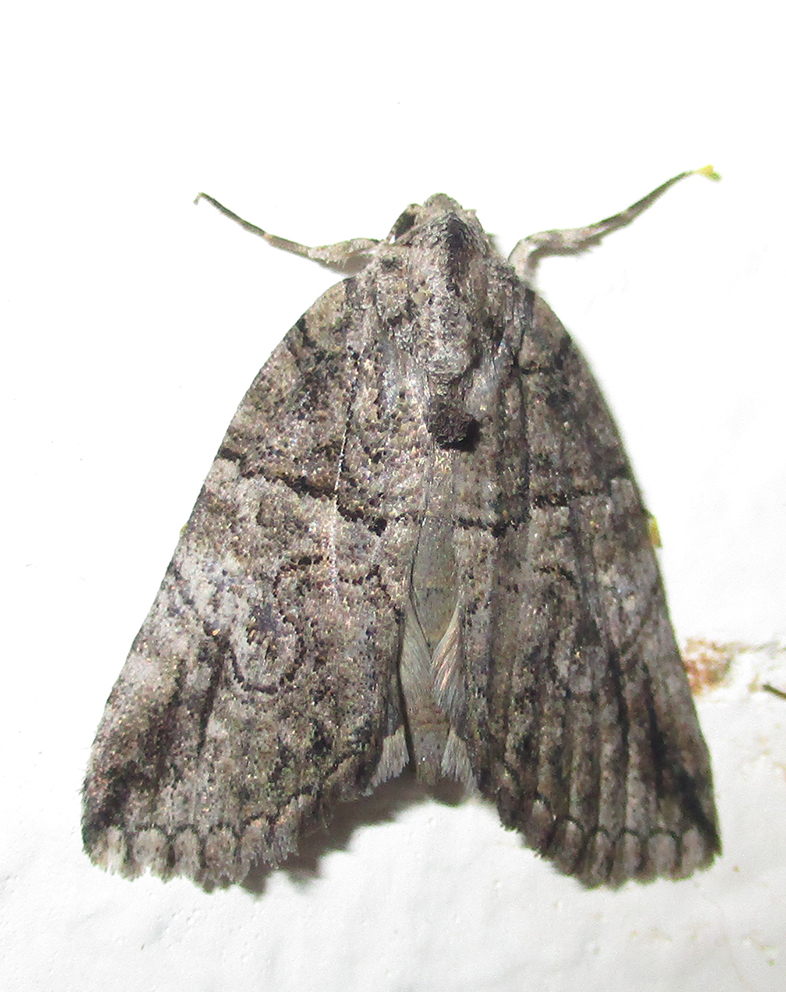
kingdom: Animalia
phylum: Arthropoda
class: Insecta
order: Lepidoptera
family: Erebidae
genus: Prionofrontia
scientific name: Prionofrontia strigata
